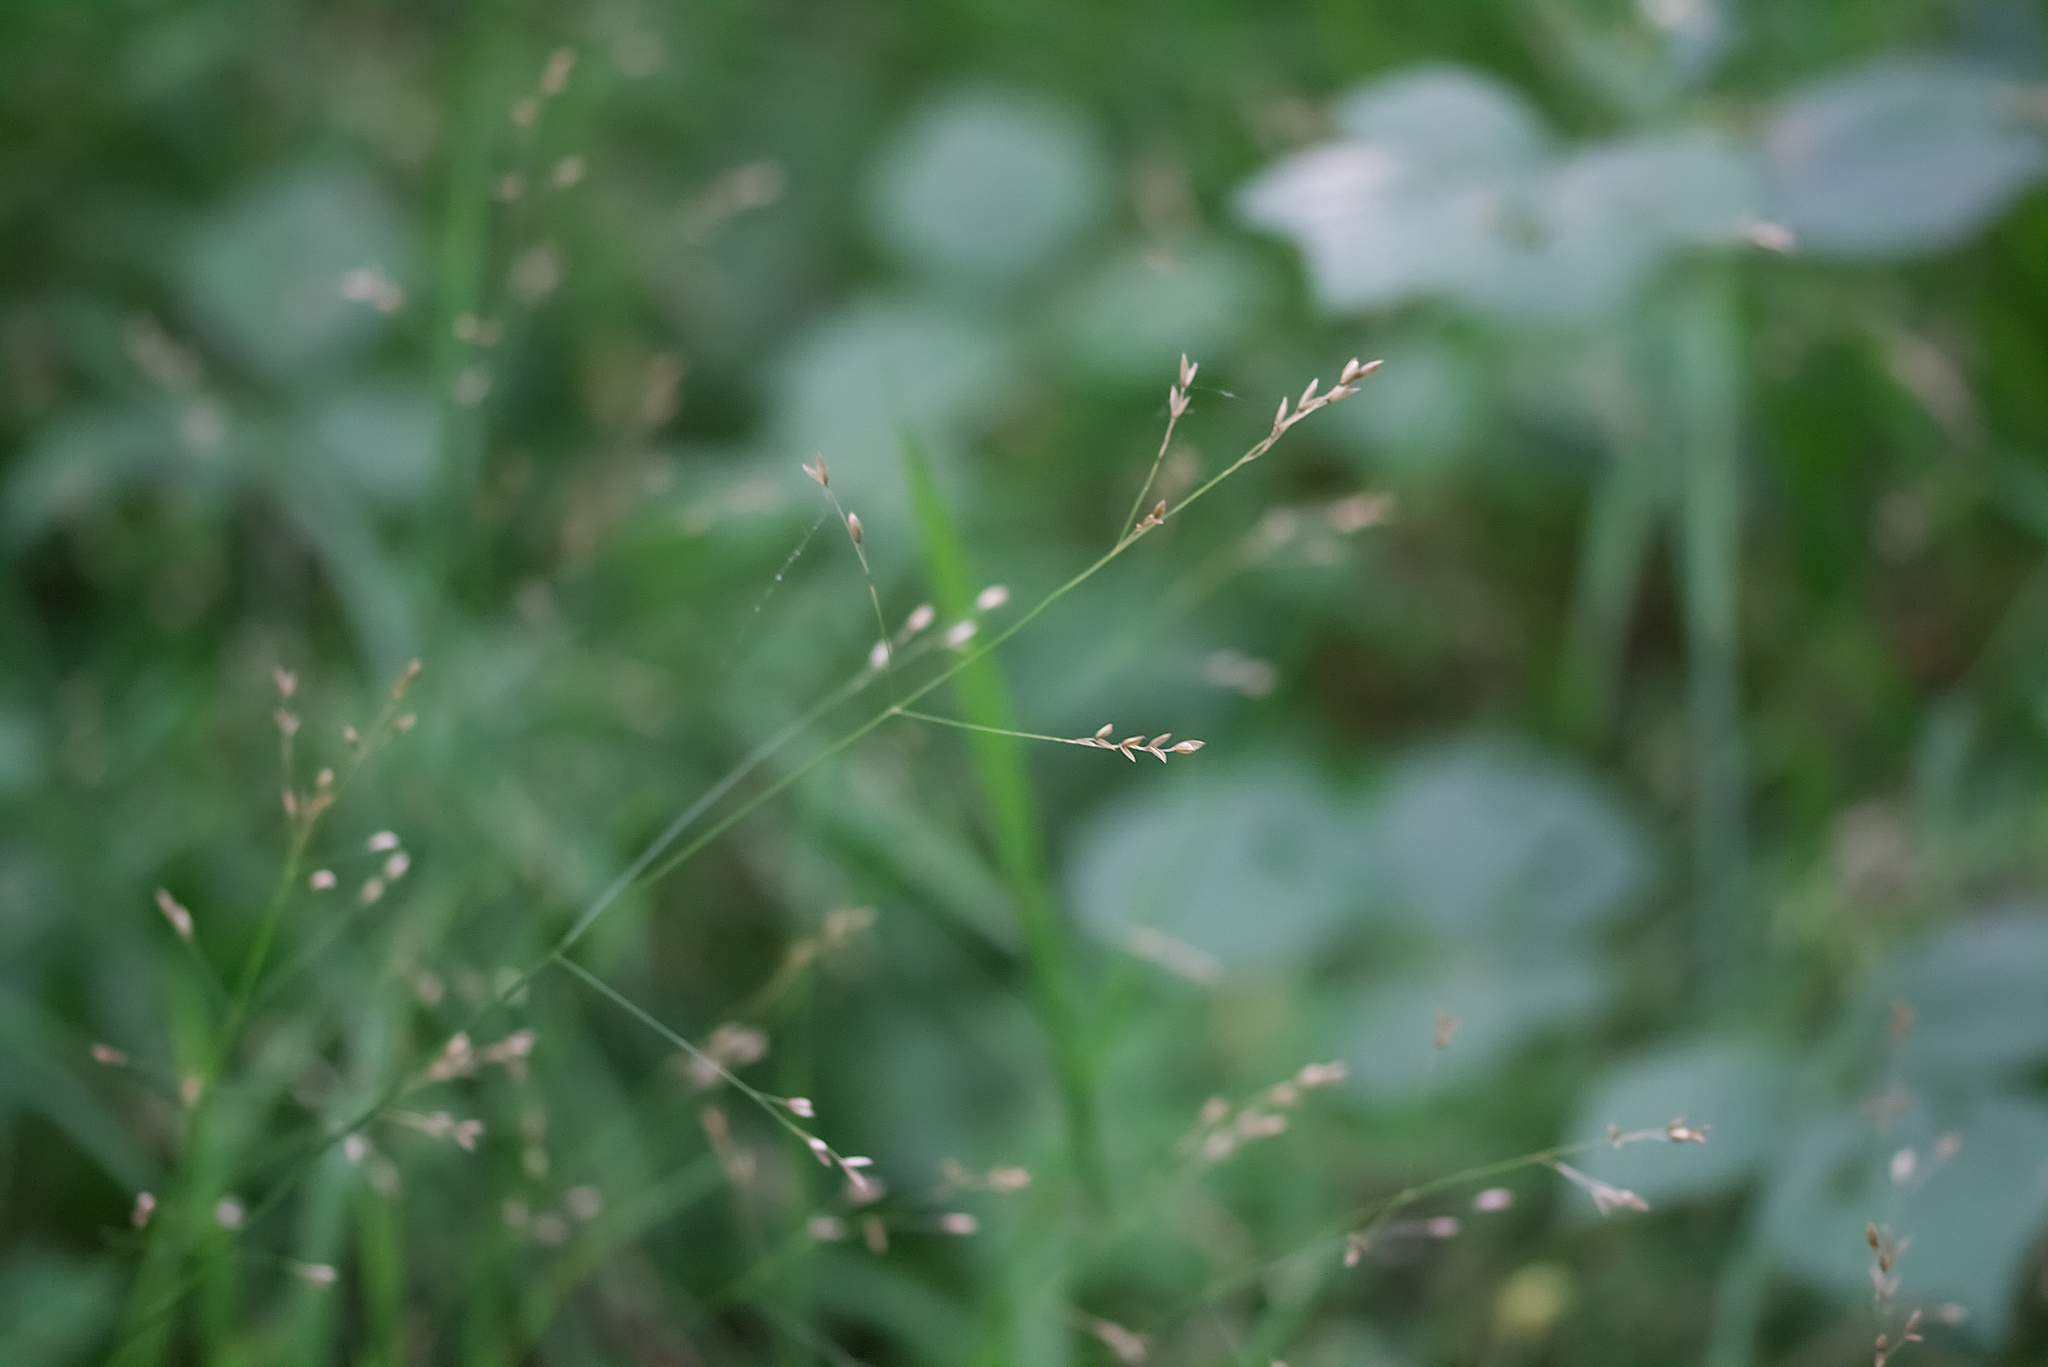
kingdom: Plantae
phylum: Tracheophyta
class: Liliopsida
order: Poales
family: Poaceae
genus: Melica
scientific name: Melica uniflora
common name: Wood melick
